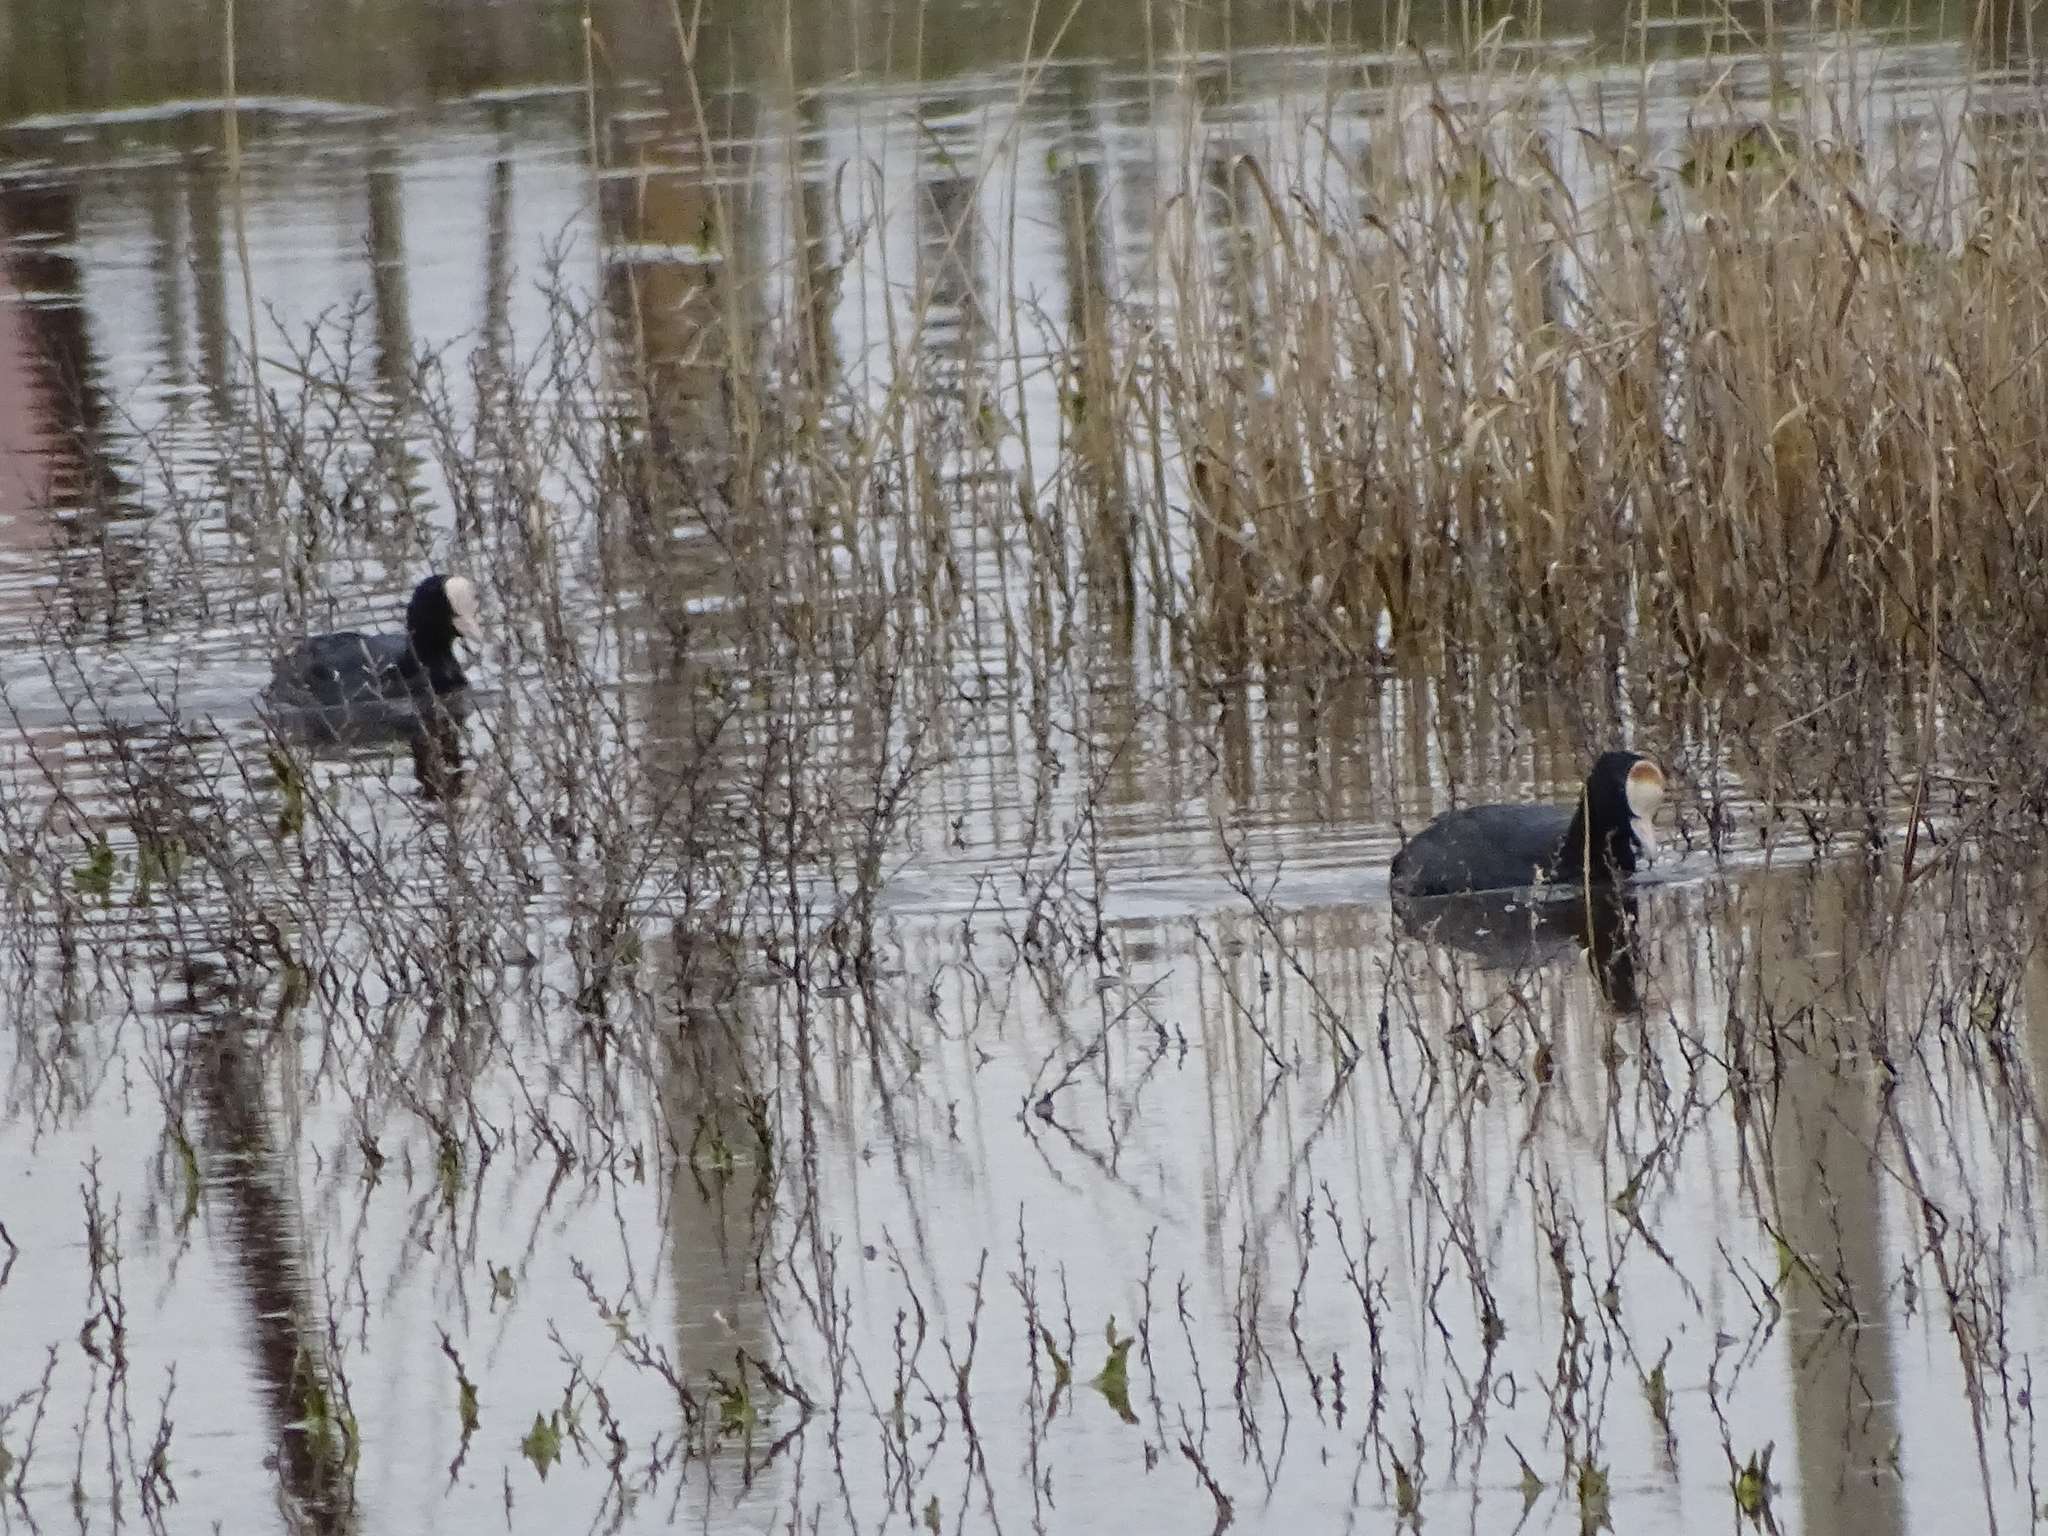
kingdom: Animalia
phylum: Chordata
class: Aves
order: Gruiformes
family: Rallidae
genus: Fulica
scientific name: Fulica atra
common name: Eurasian coot
